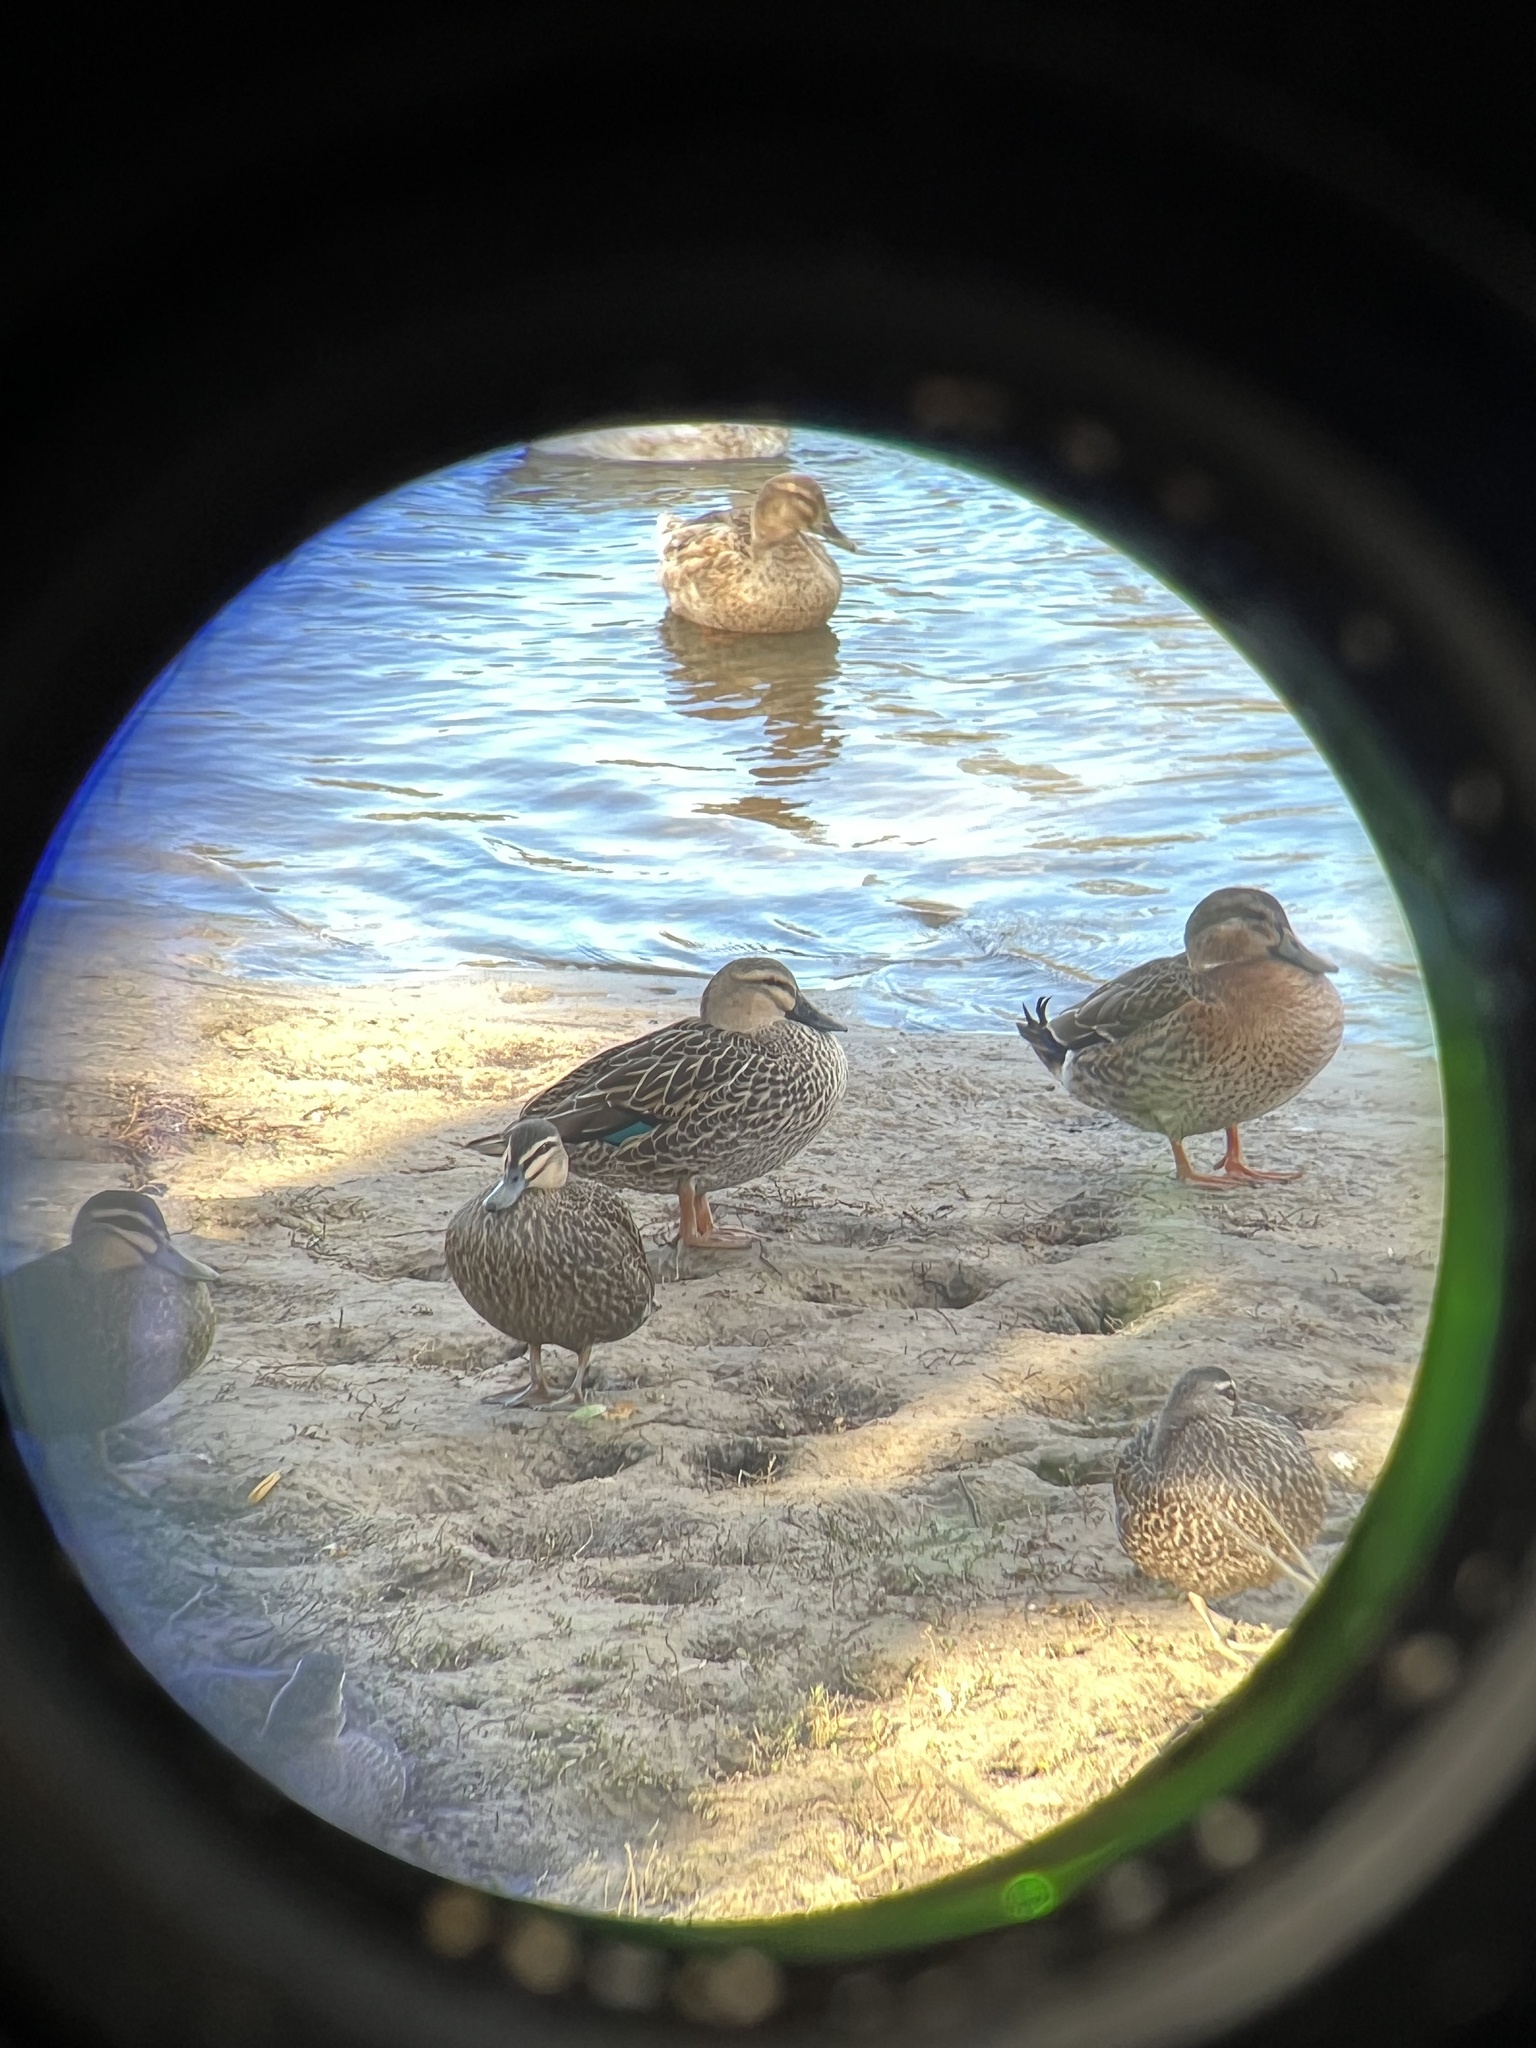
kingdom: Animalia
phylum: Chordata
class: Aves
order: Anseriformes
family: Anatidae
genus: Anas
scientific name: Anas
